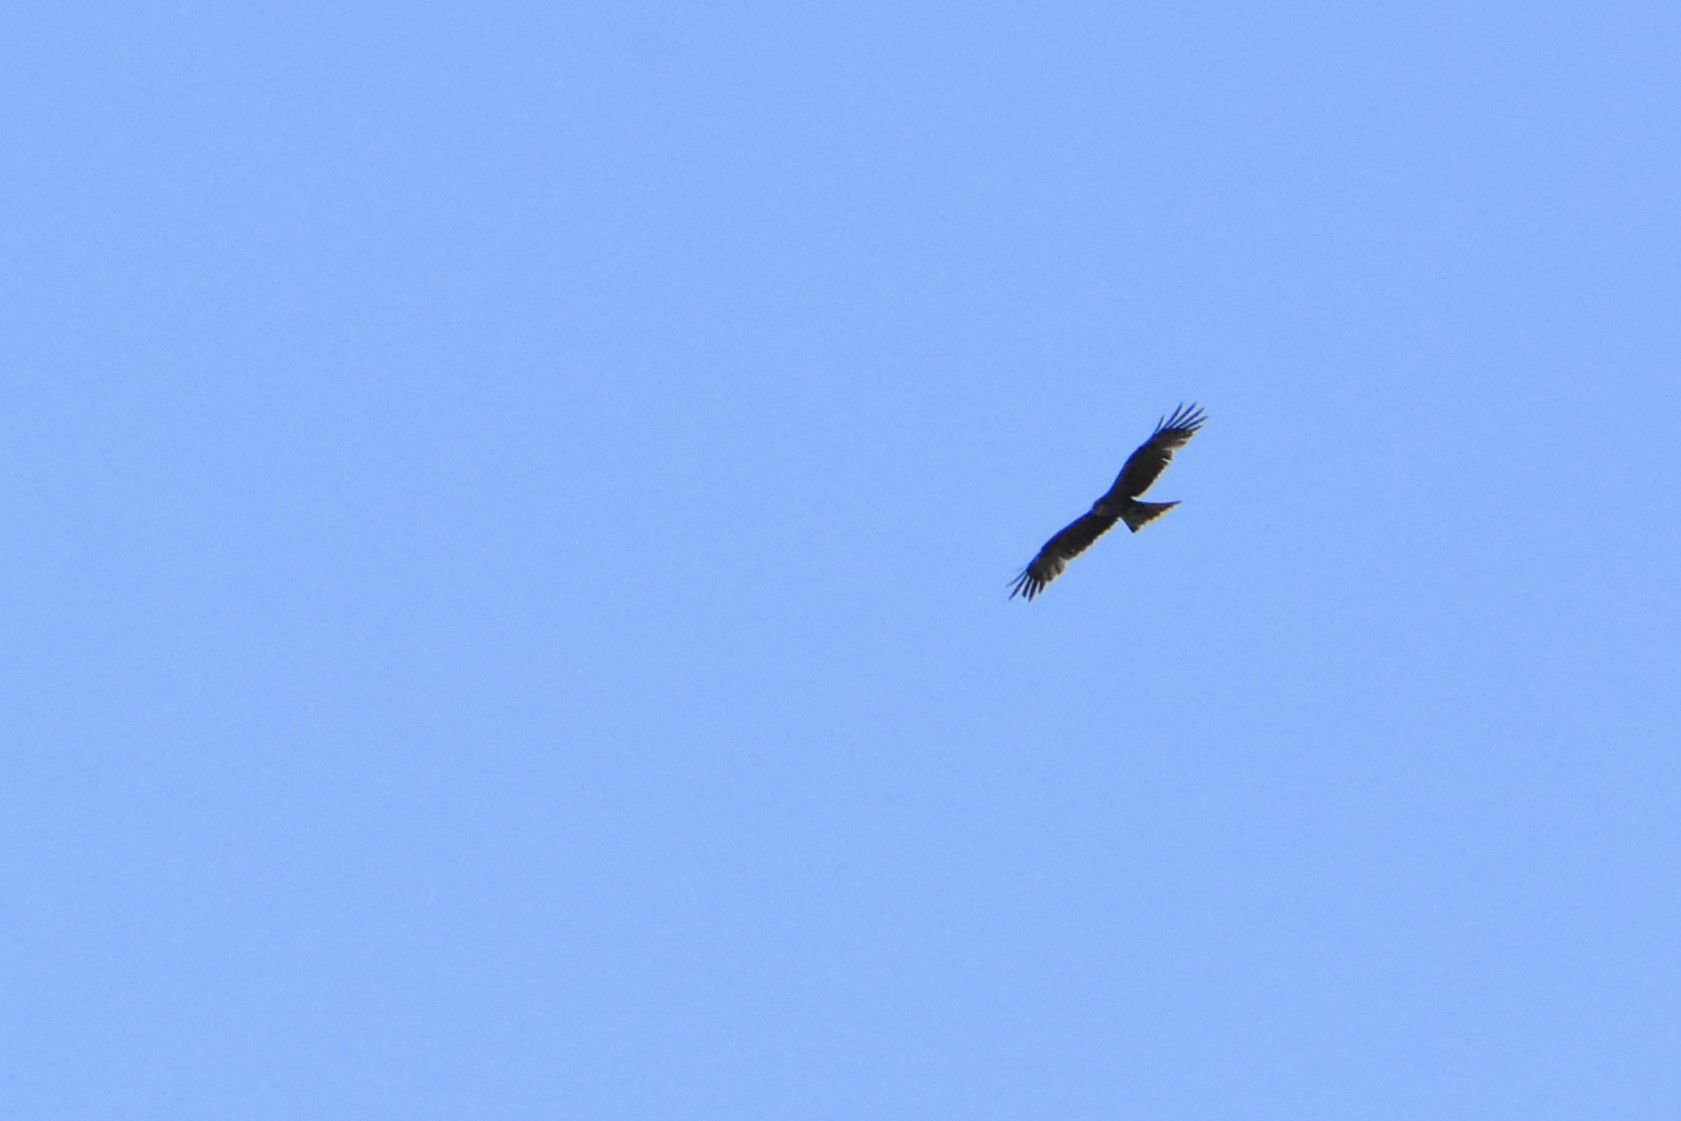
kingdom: Animalia
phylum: Chordata
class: Aves
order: Accipitriformes
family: Accipitridae
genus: Milvus
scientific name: Milvus migrans
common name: Black kite
